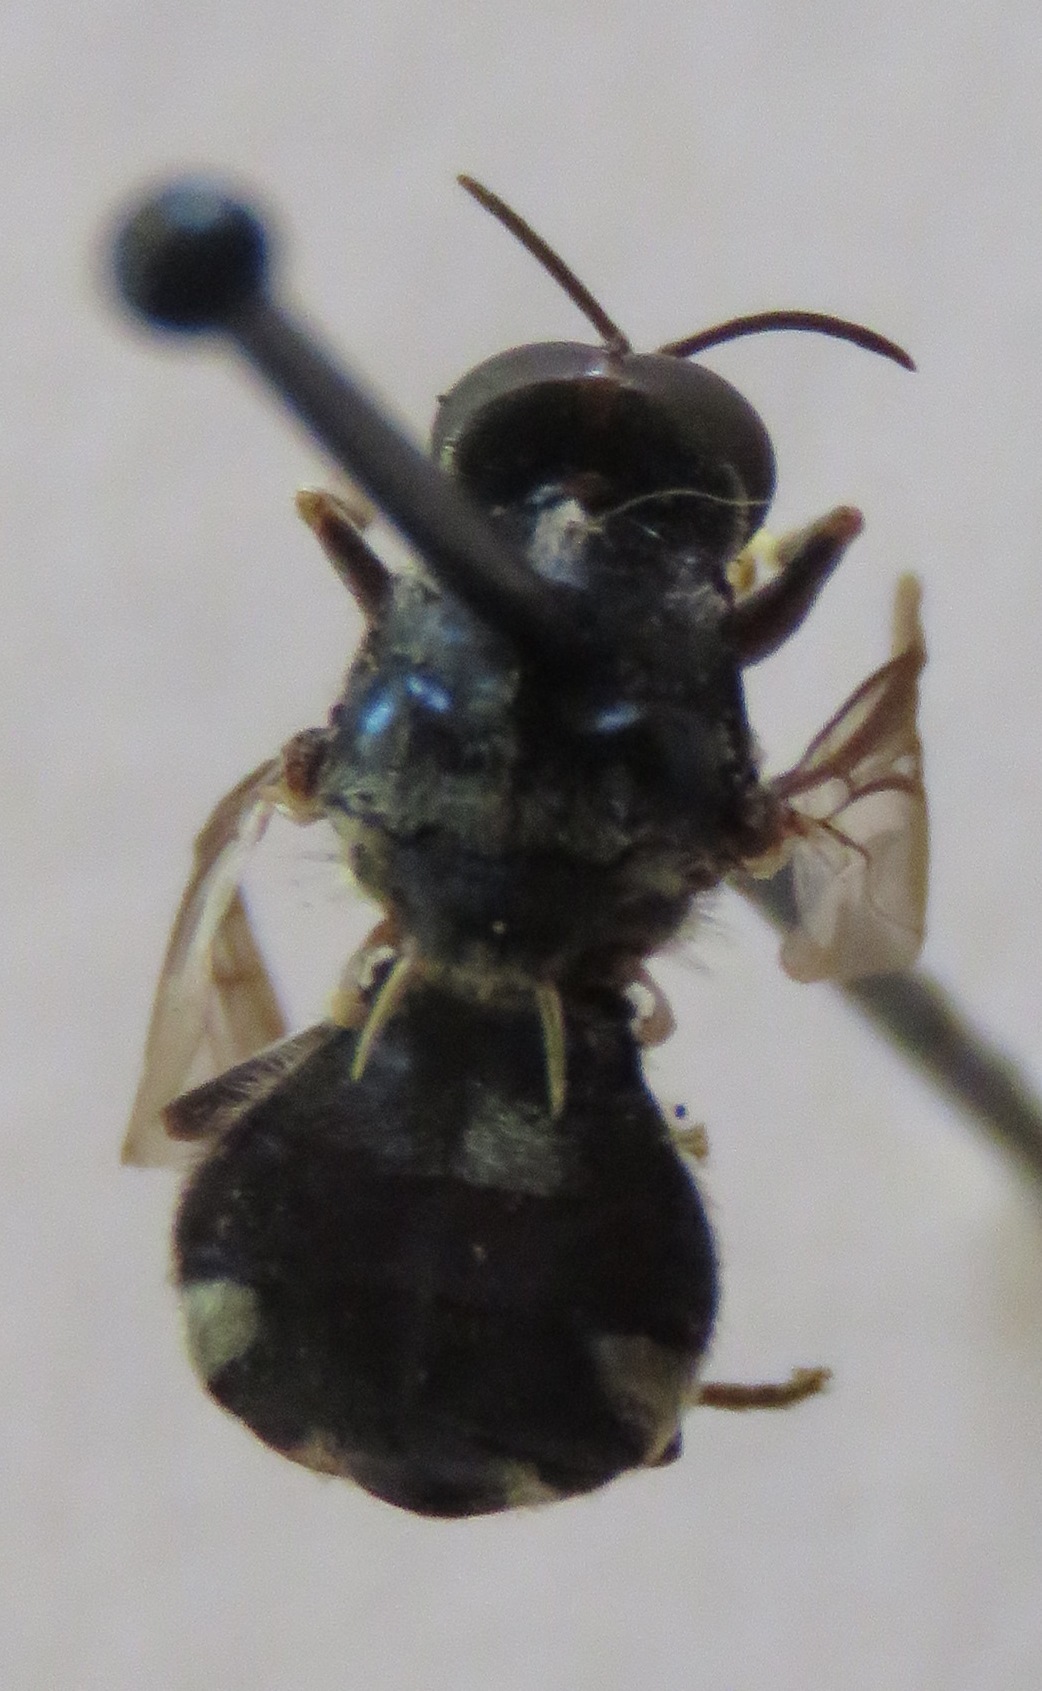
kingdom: Animalia
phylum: Arthropoda
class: Insecta
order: Diptera
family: Stratiomyidae
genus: Cyphomyia
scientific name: Cyphomyia wiedemanni
